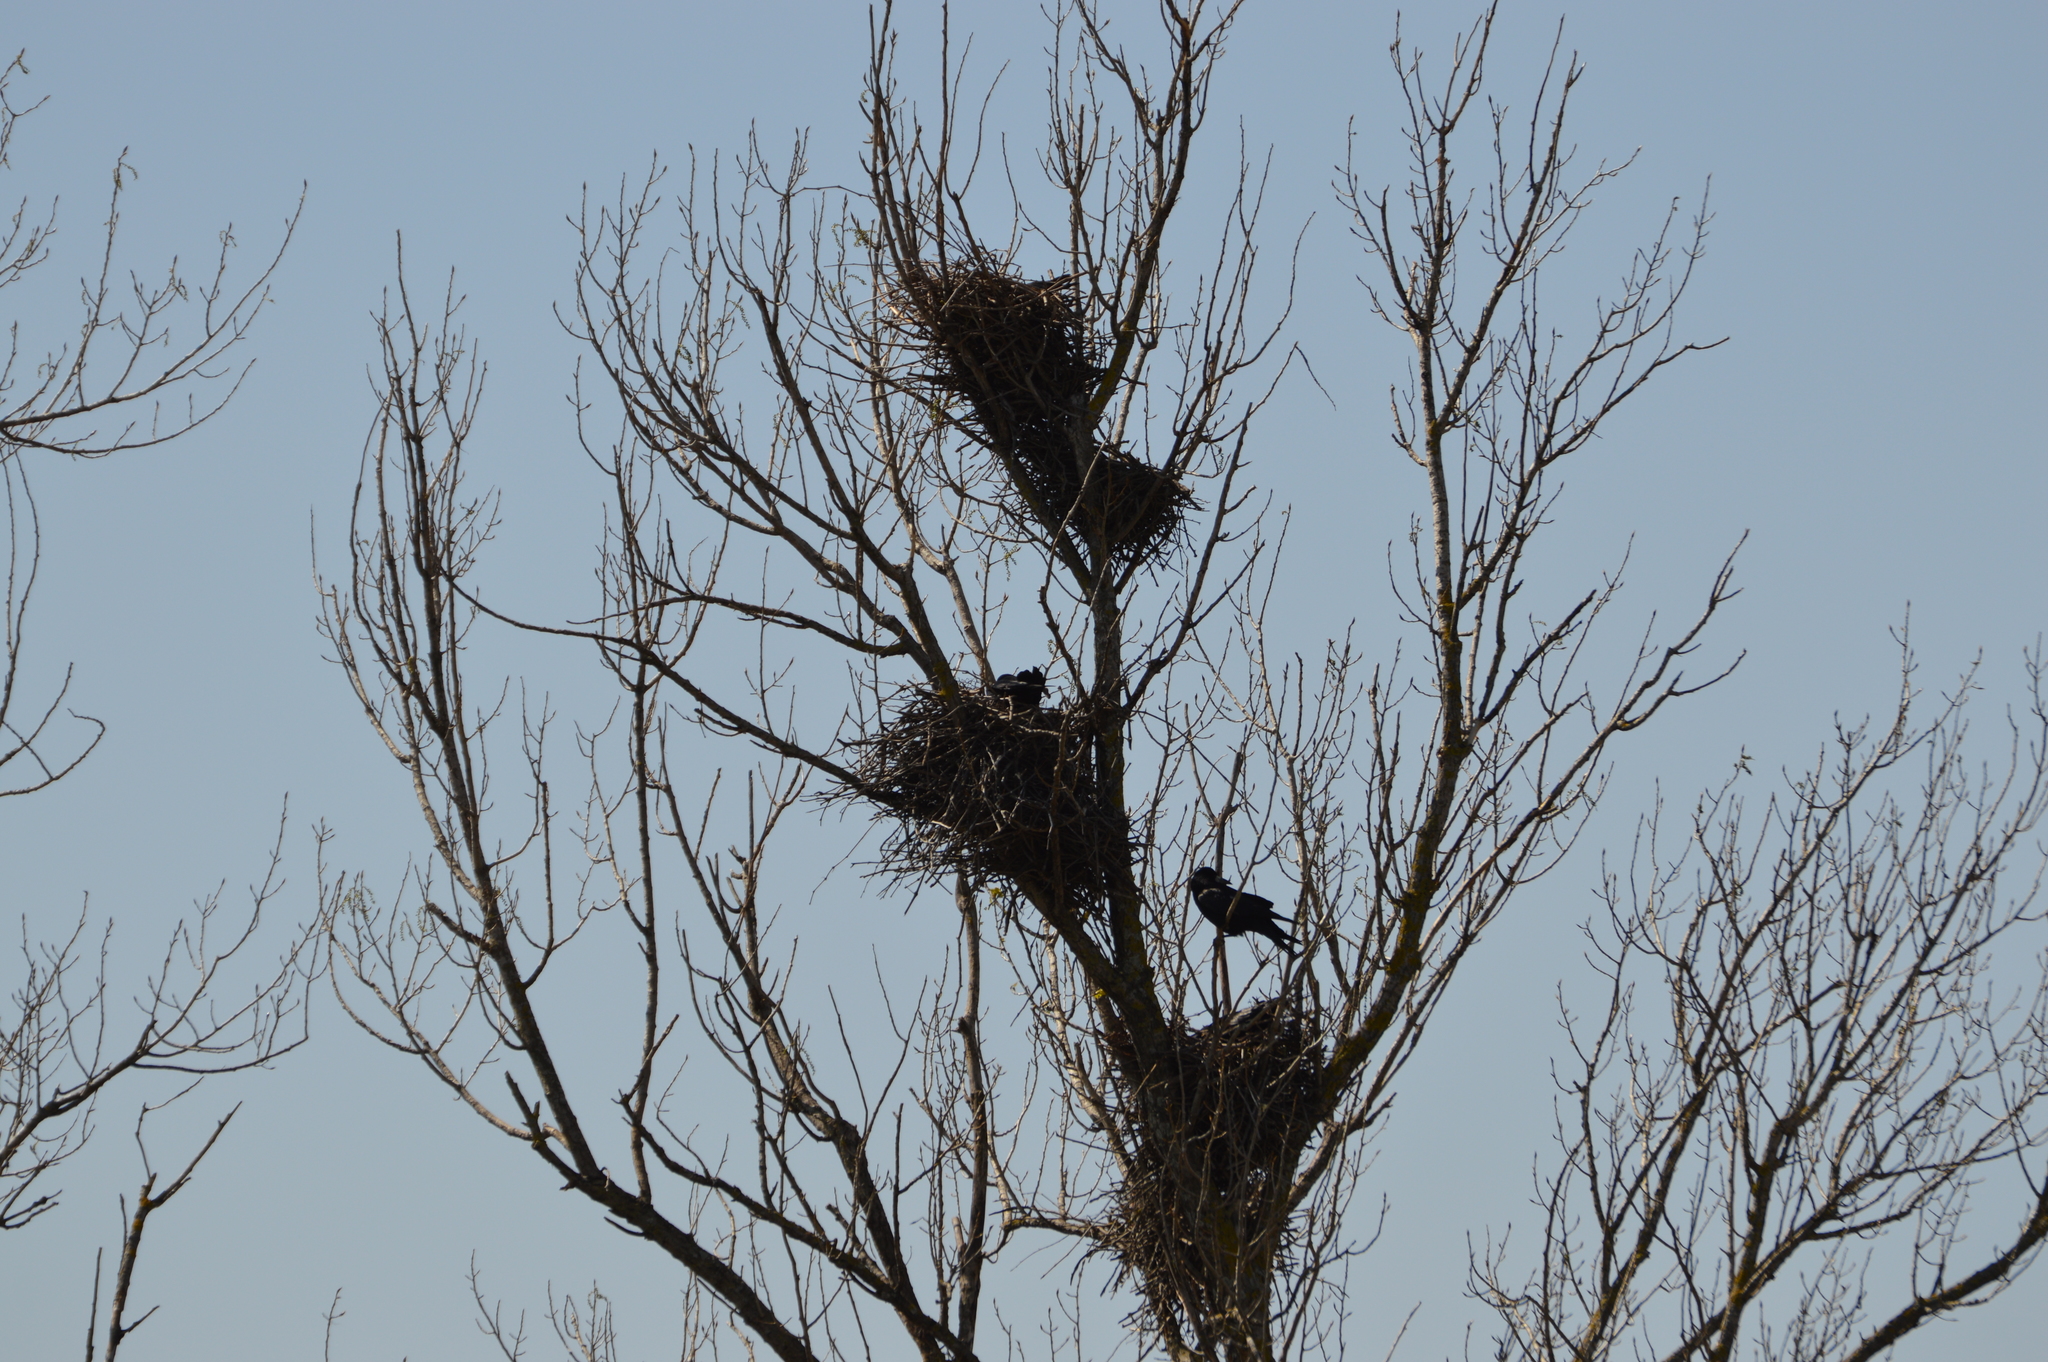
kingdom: Animalia
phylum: Chordata
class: Aves
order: Passeriformes
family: Corvidae
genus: Corvus
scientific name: Corvus frugilegus
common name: Rook
